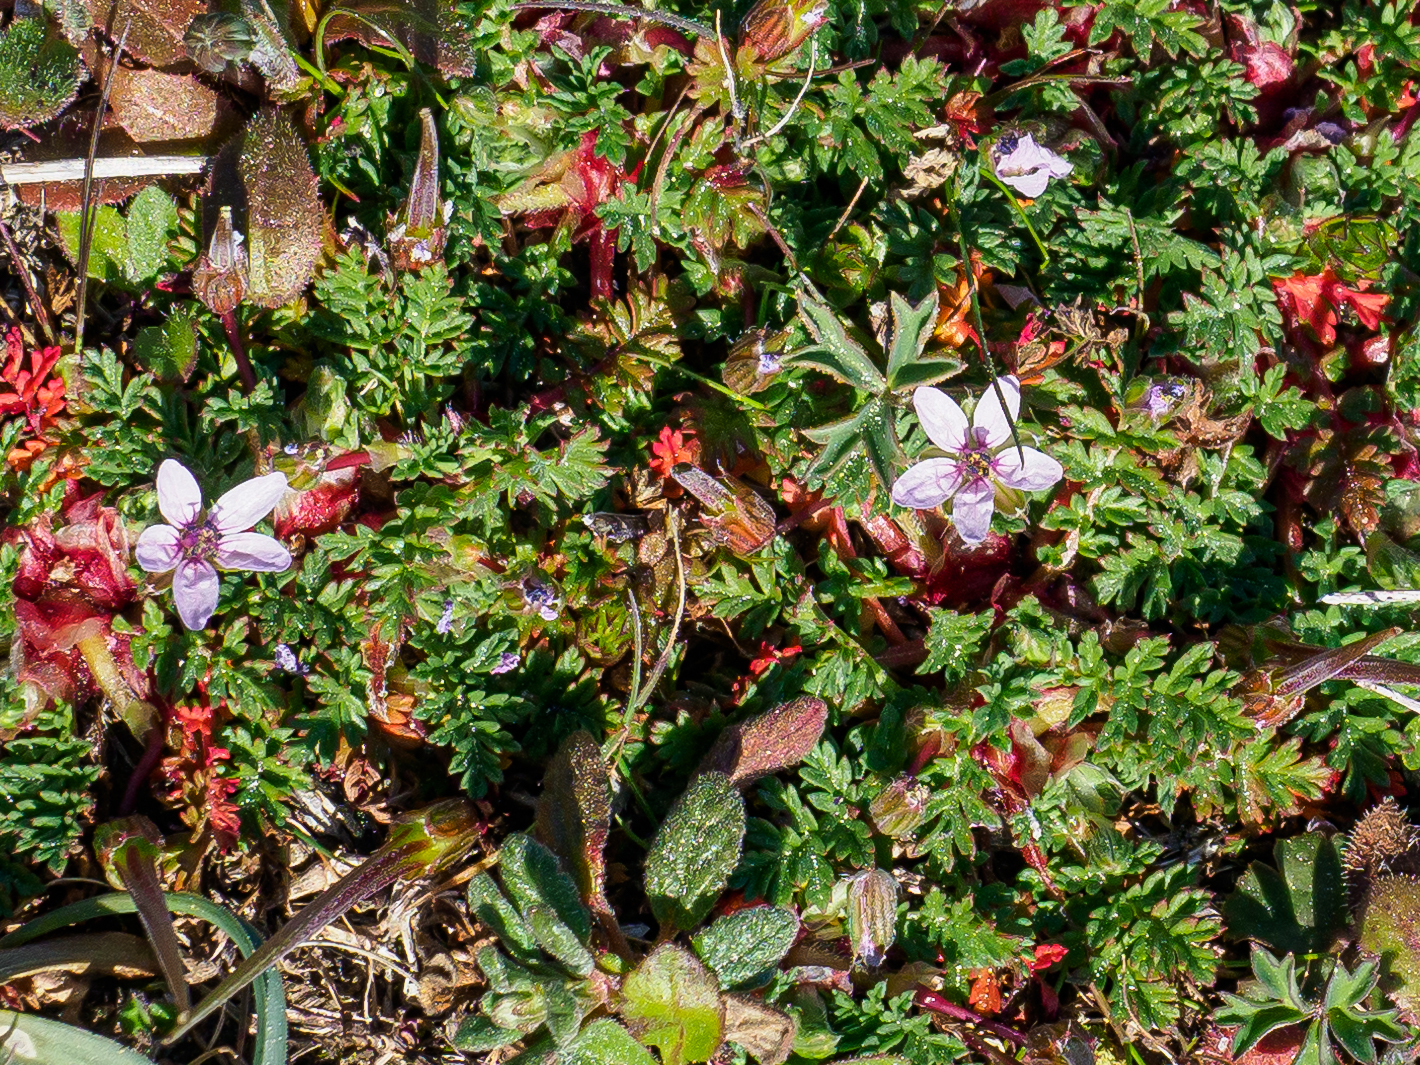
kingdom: Plantae
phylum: Tracheophyta
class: Magnoliopsida
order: Geraniales
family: Geraniaceae
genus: Erodium
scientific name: Erodium acaule
